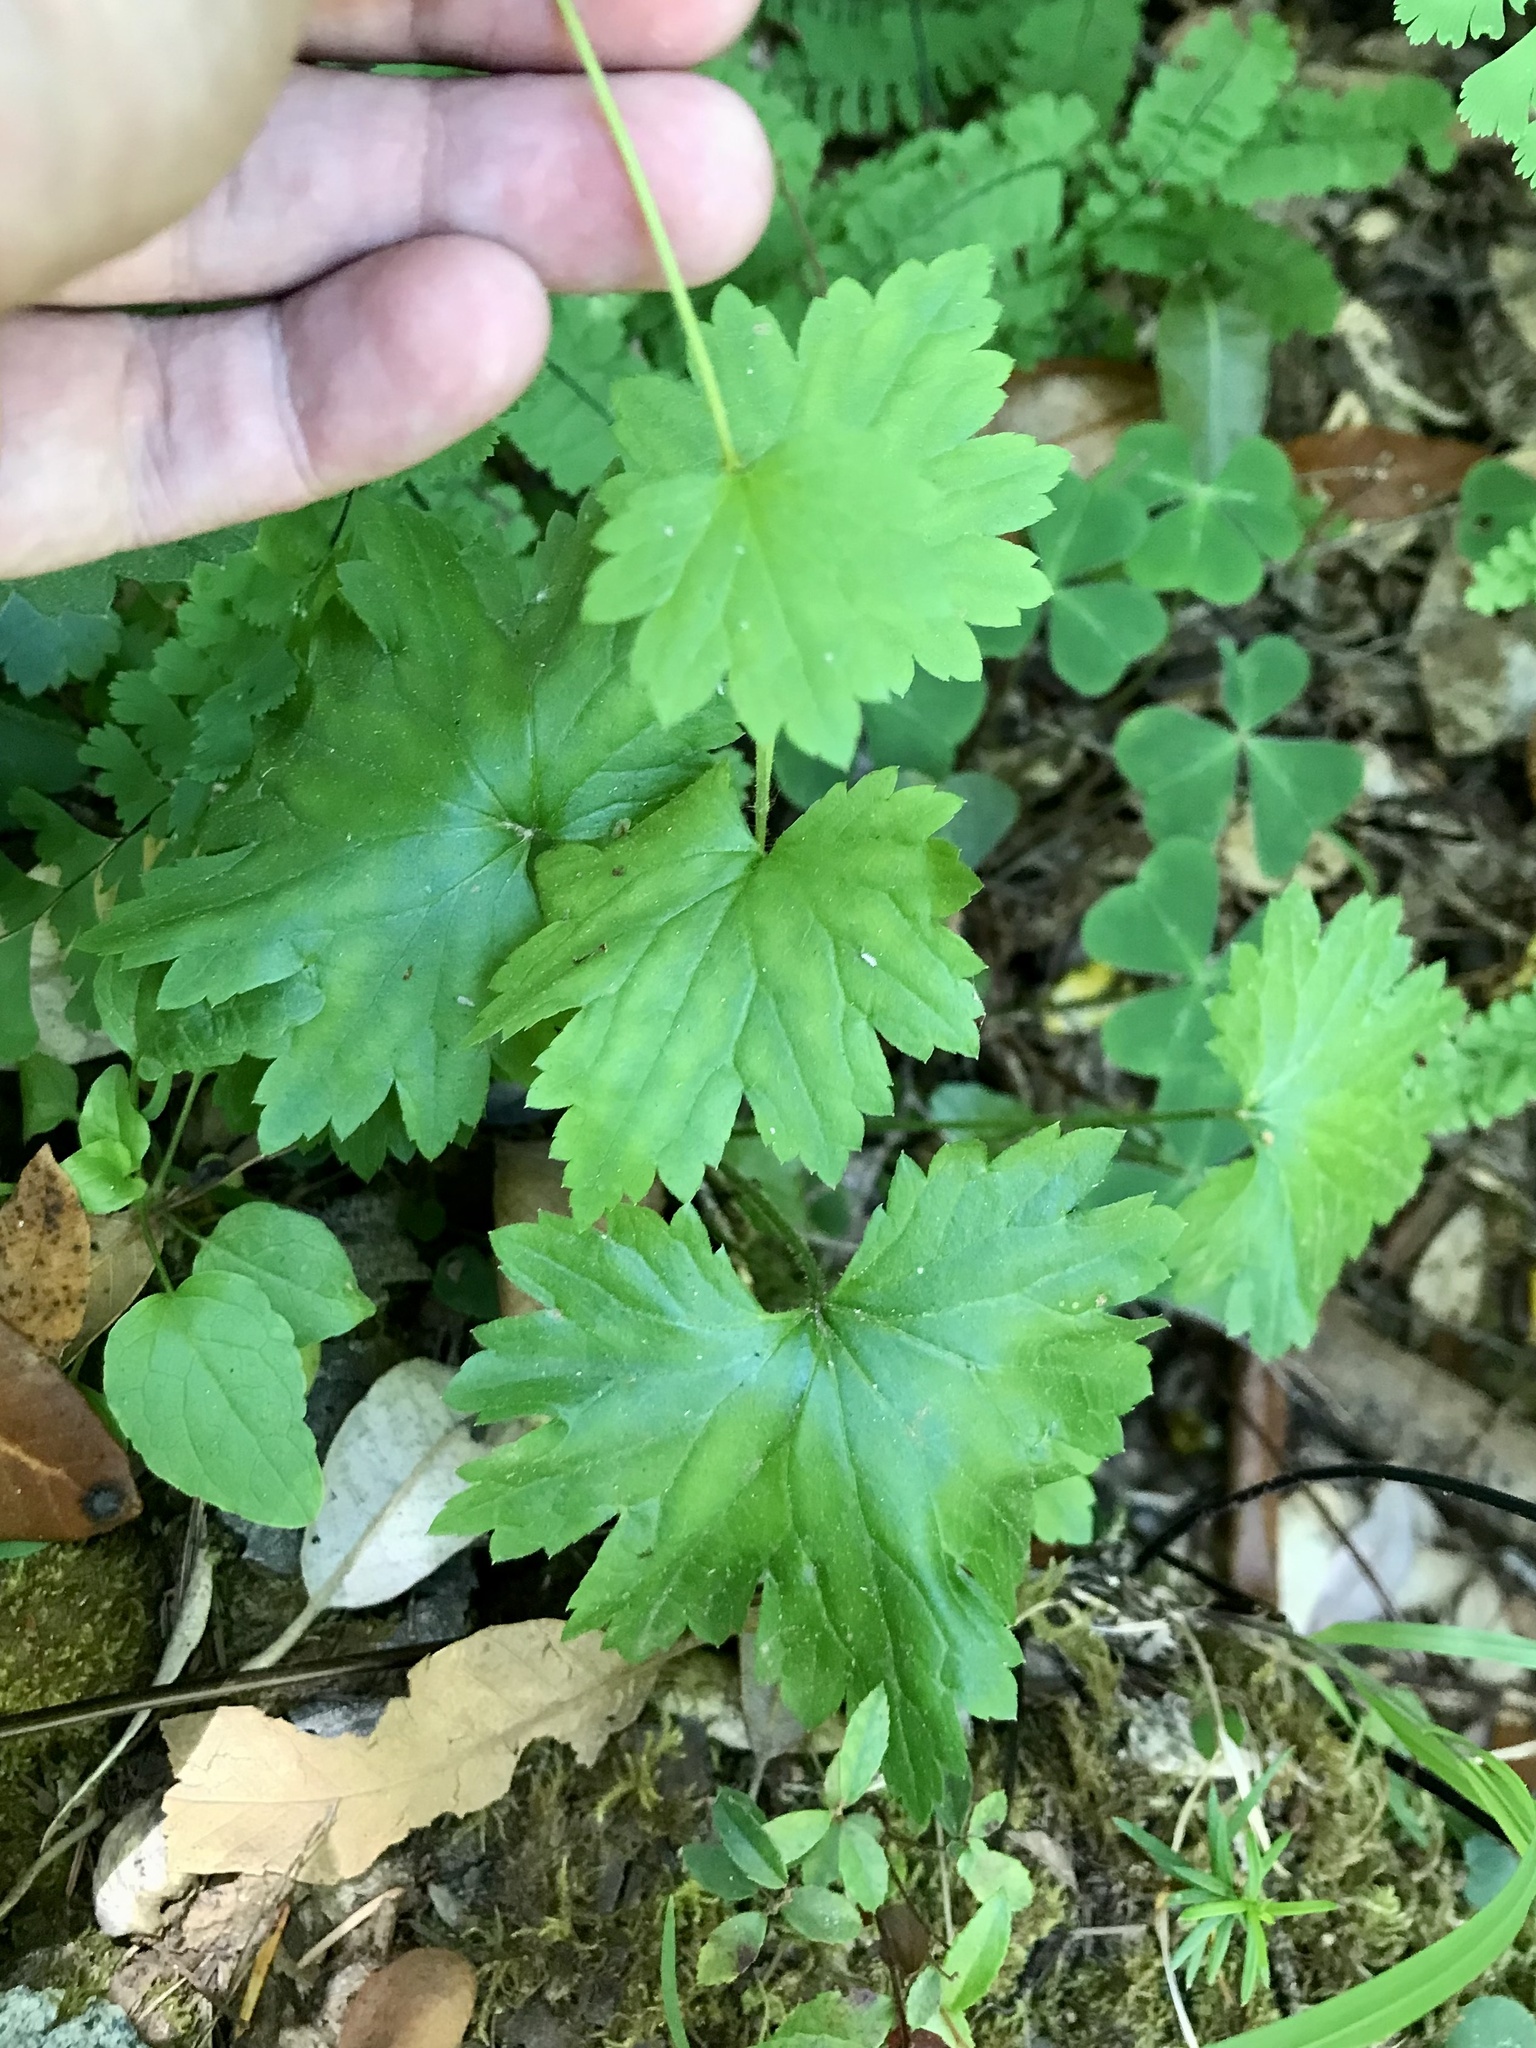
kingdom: Plantae
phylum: Tracheophyta
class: Magnoliopsida
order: Saxifragales
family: Saxifragaceae
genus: Boykinia
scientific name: Boykinia occidentalis
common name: Coast boykinia
